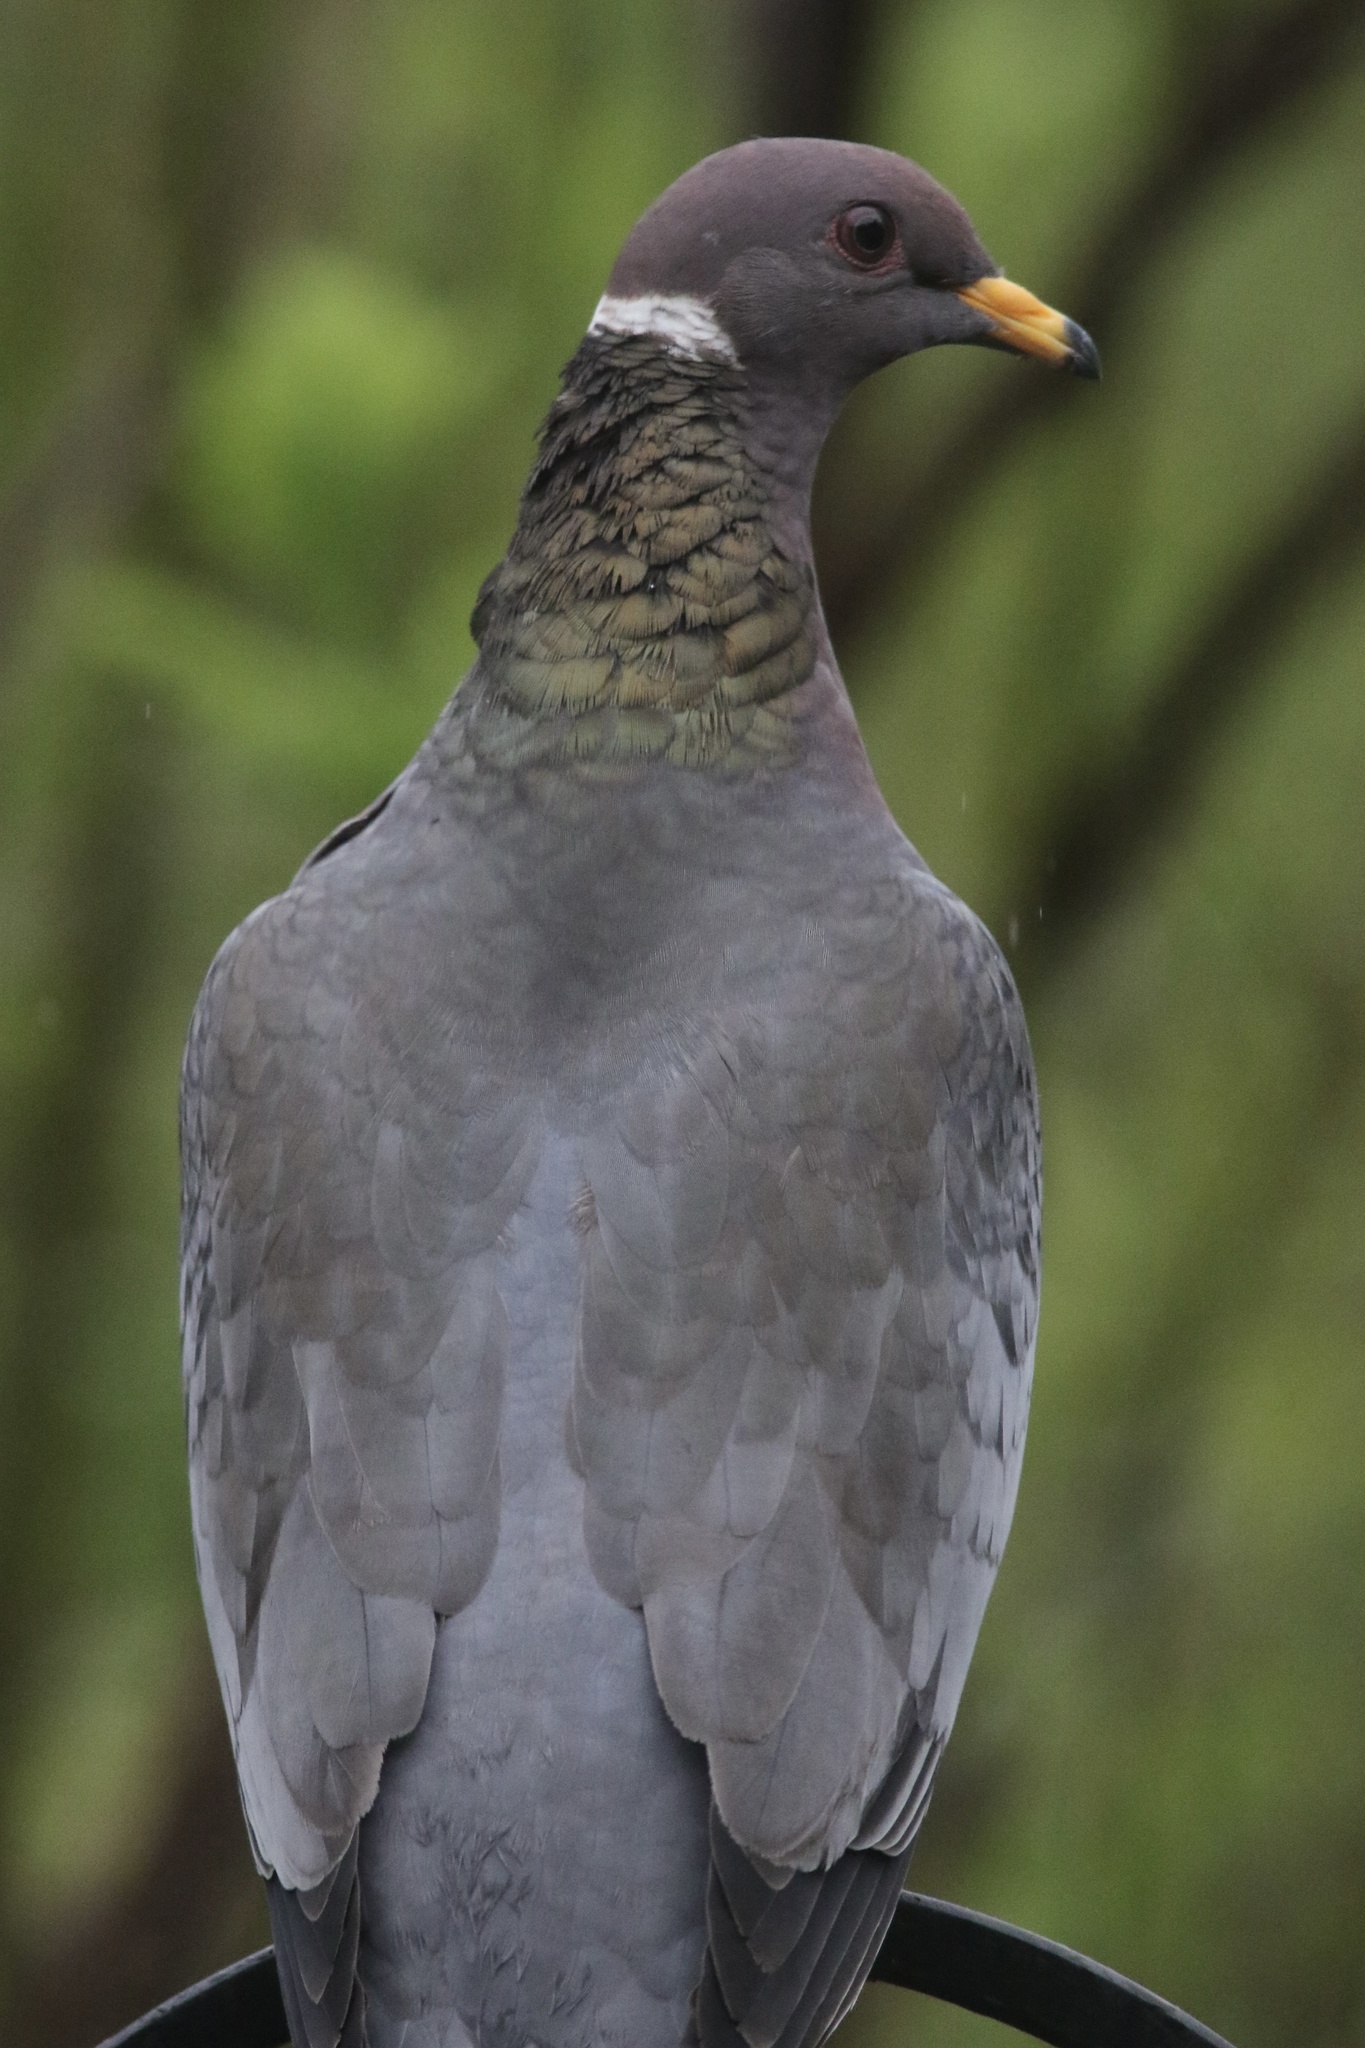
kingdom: Animalia
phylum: Chordata
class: Aves
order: Columbiformes
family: Columbidae
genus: Patagioenas
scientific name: Patagioenas fasciata
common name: Band-tailed pigeon
